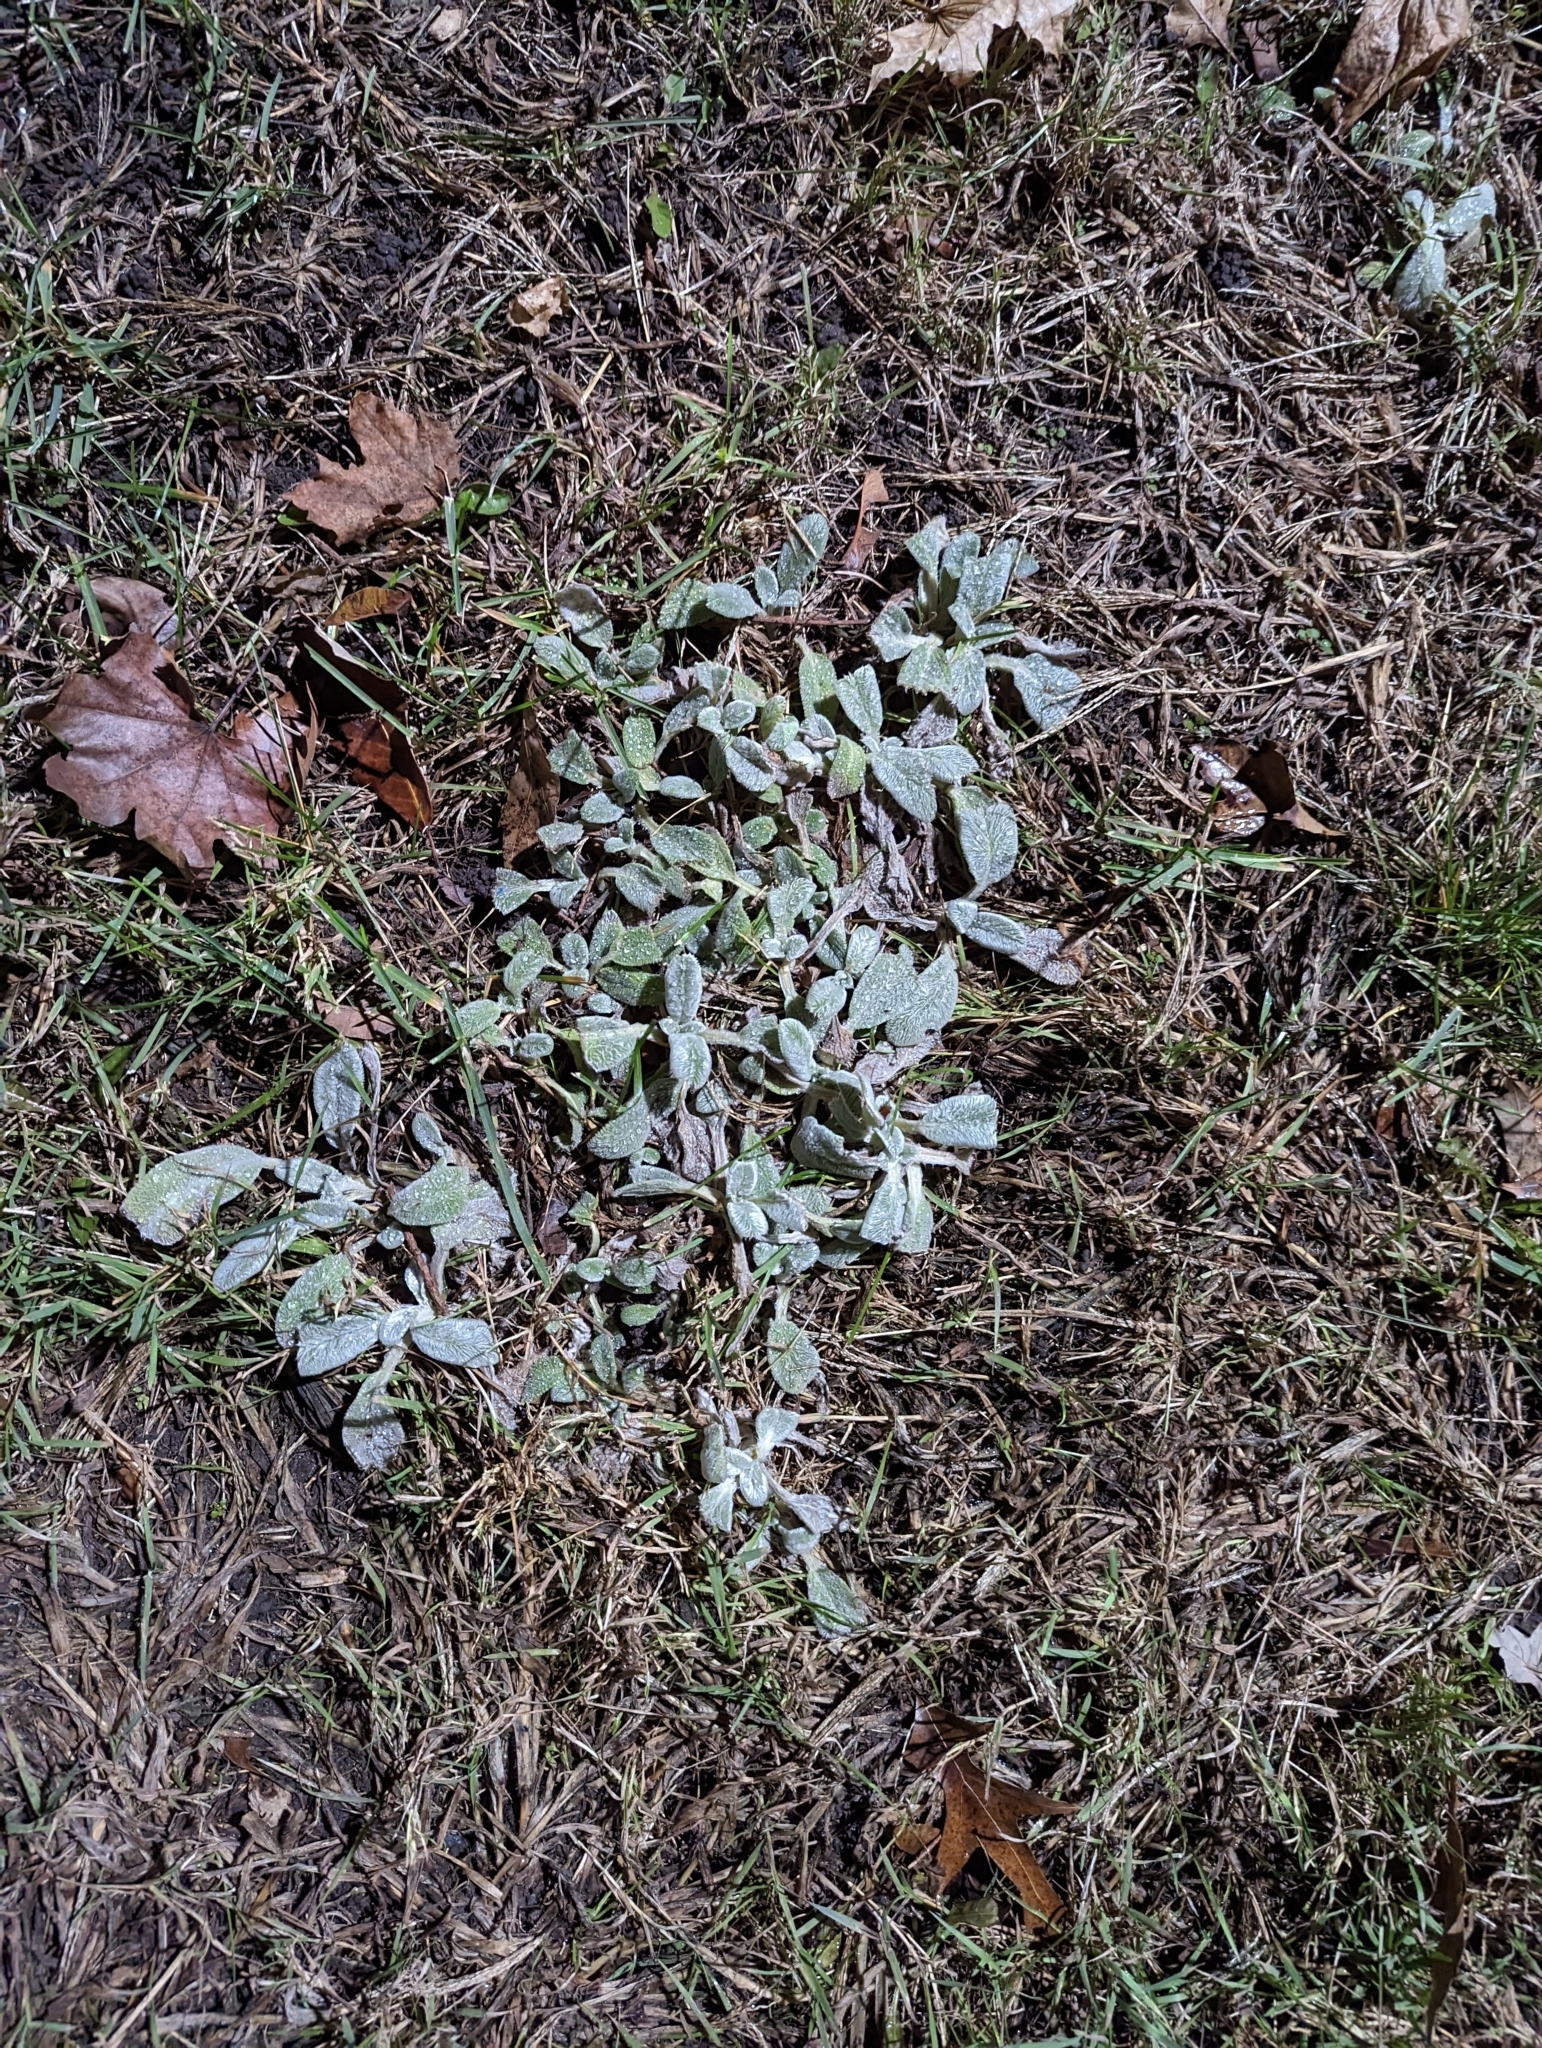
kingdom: Plantae
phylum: Tracheophyta
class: Magnoliopsida
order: Lamiales
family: Lamiaceae
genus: Stachys
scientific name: Stachys byzantina
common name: Lamb's-ear
